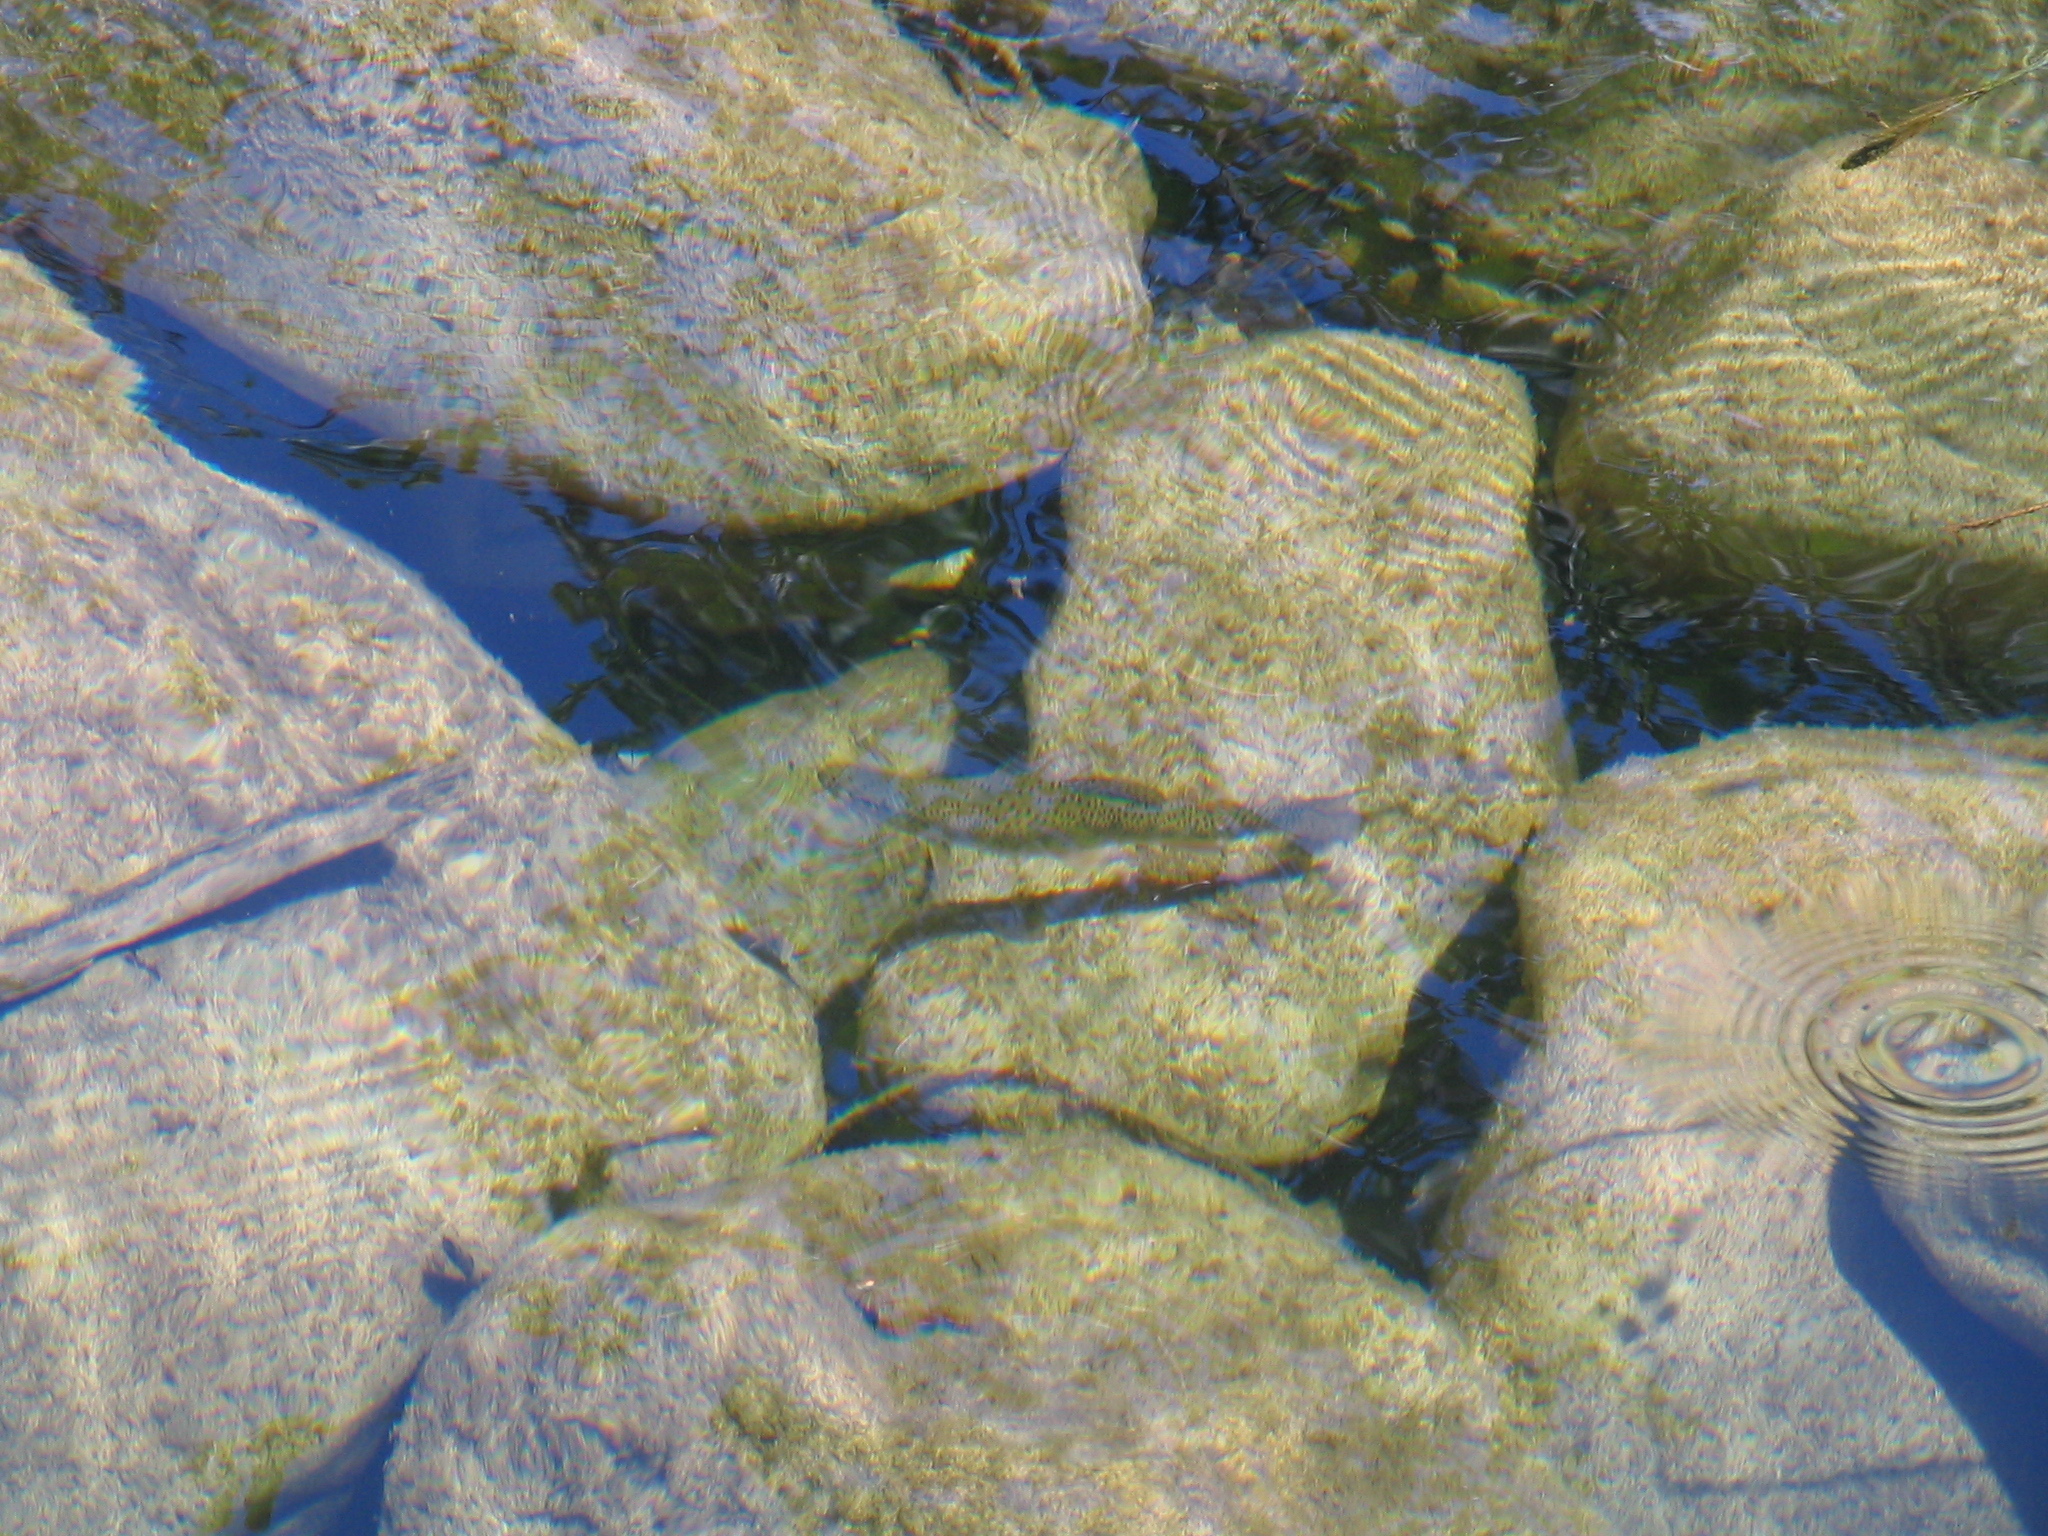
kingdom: Animalia
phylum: Chordata
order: Salmoniformes
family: Salmonidae
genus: Oncorhynchus
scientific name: Oncorhynchus mykiss
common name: Rainbow trout
